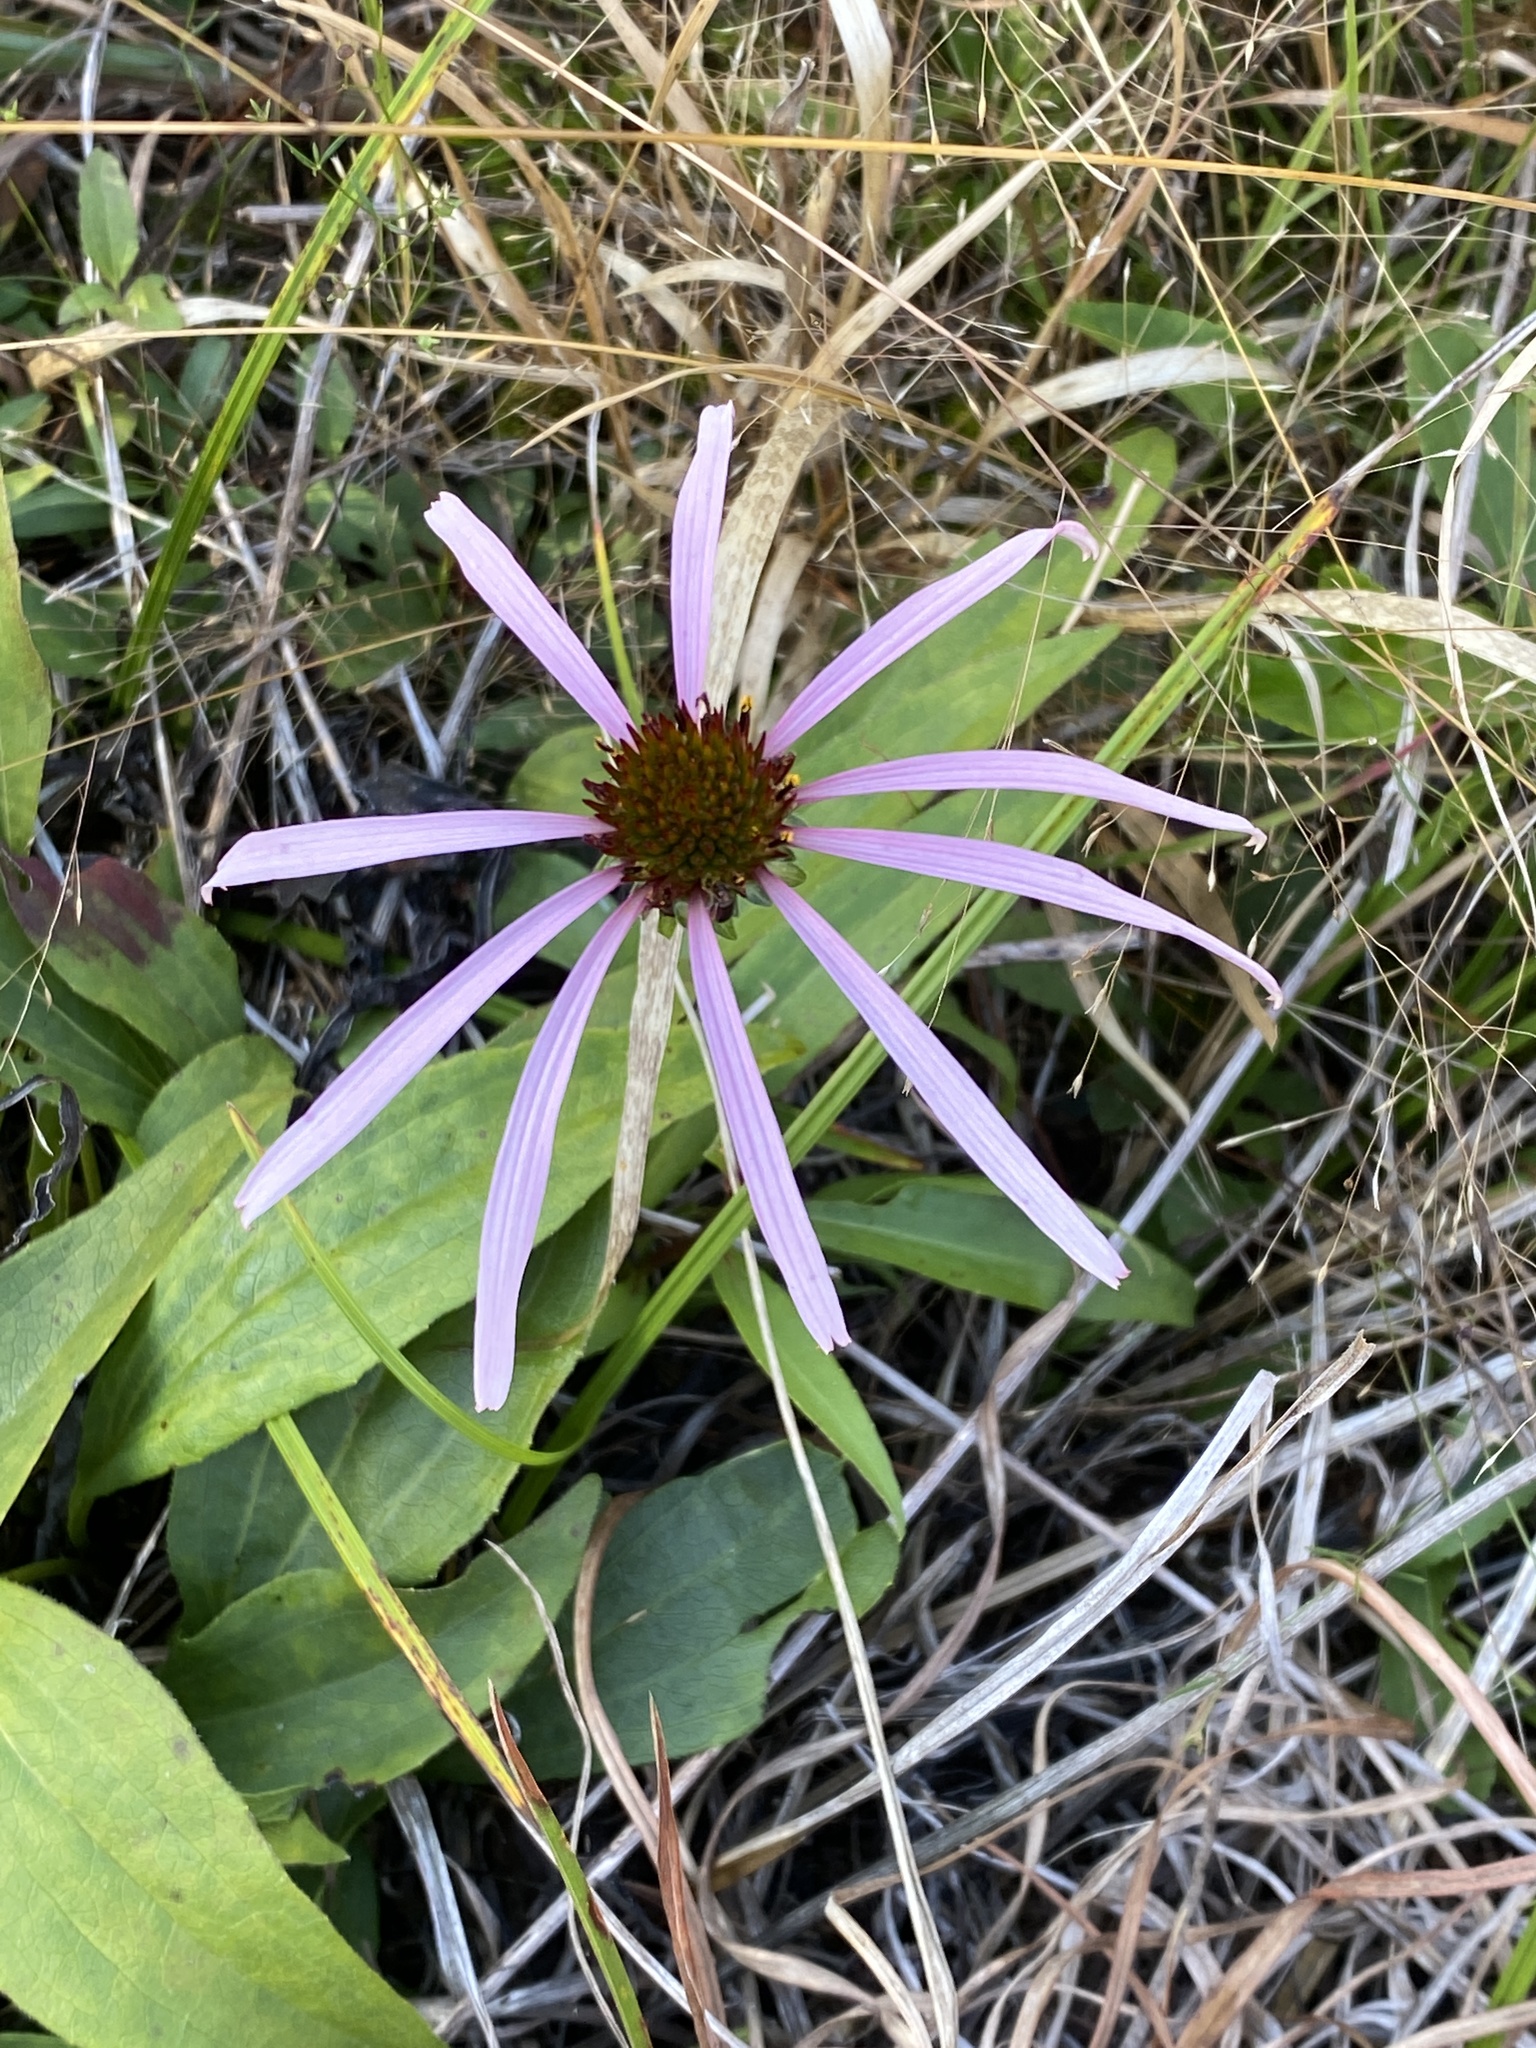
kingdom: Plantae
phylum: Tracheophyta
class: Magnoliopsida
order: Asterales
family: Asteraceae
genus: Echinacea
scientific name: Echinacea laevigata
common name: Smooth coneflower
